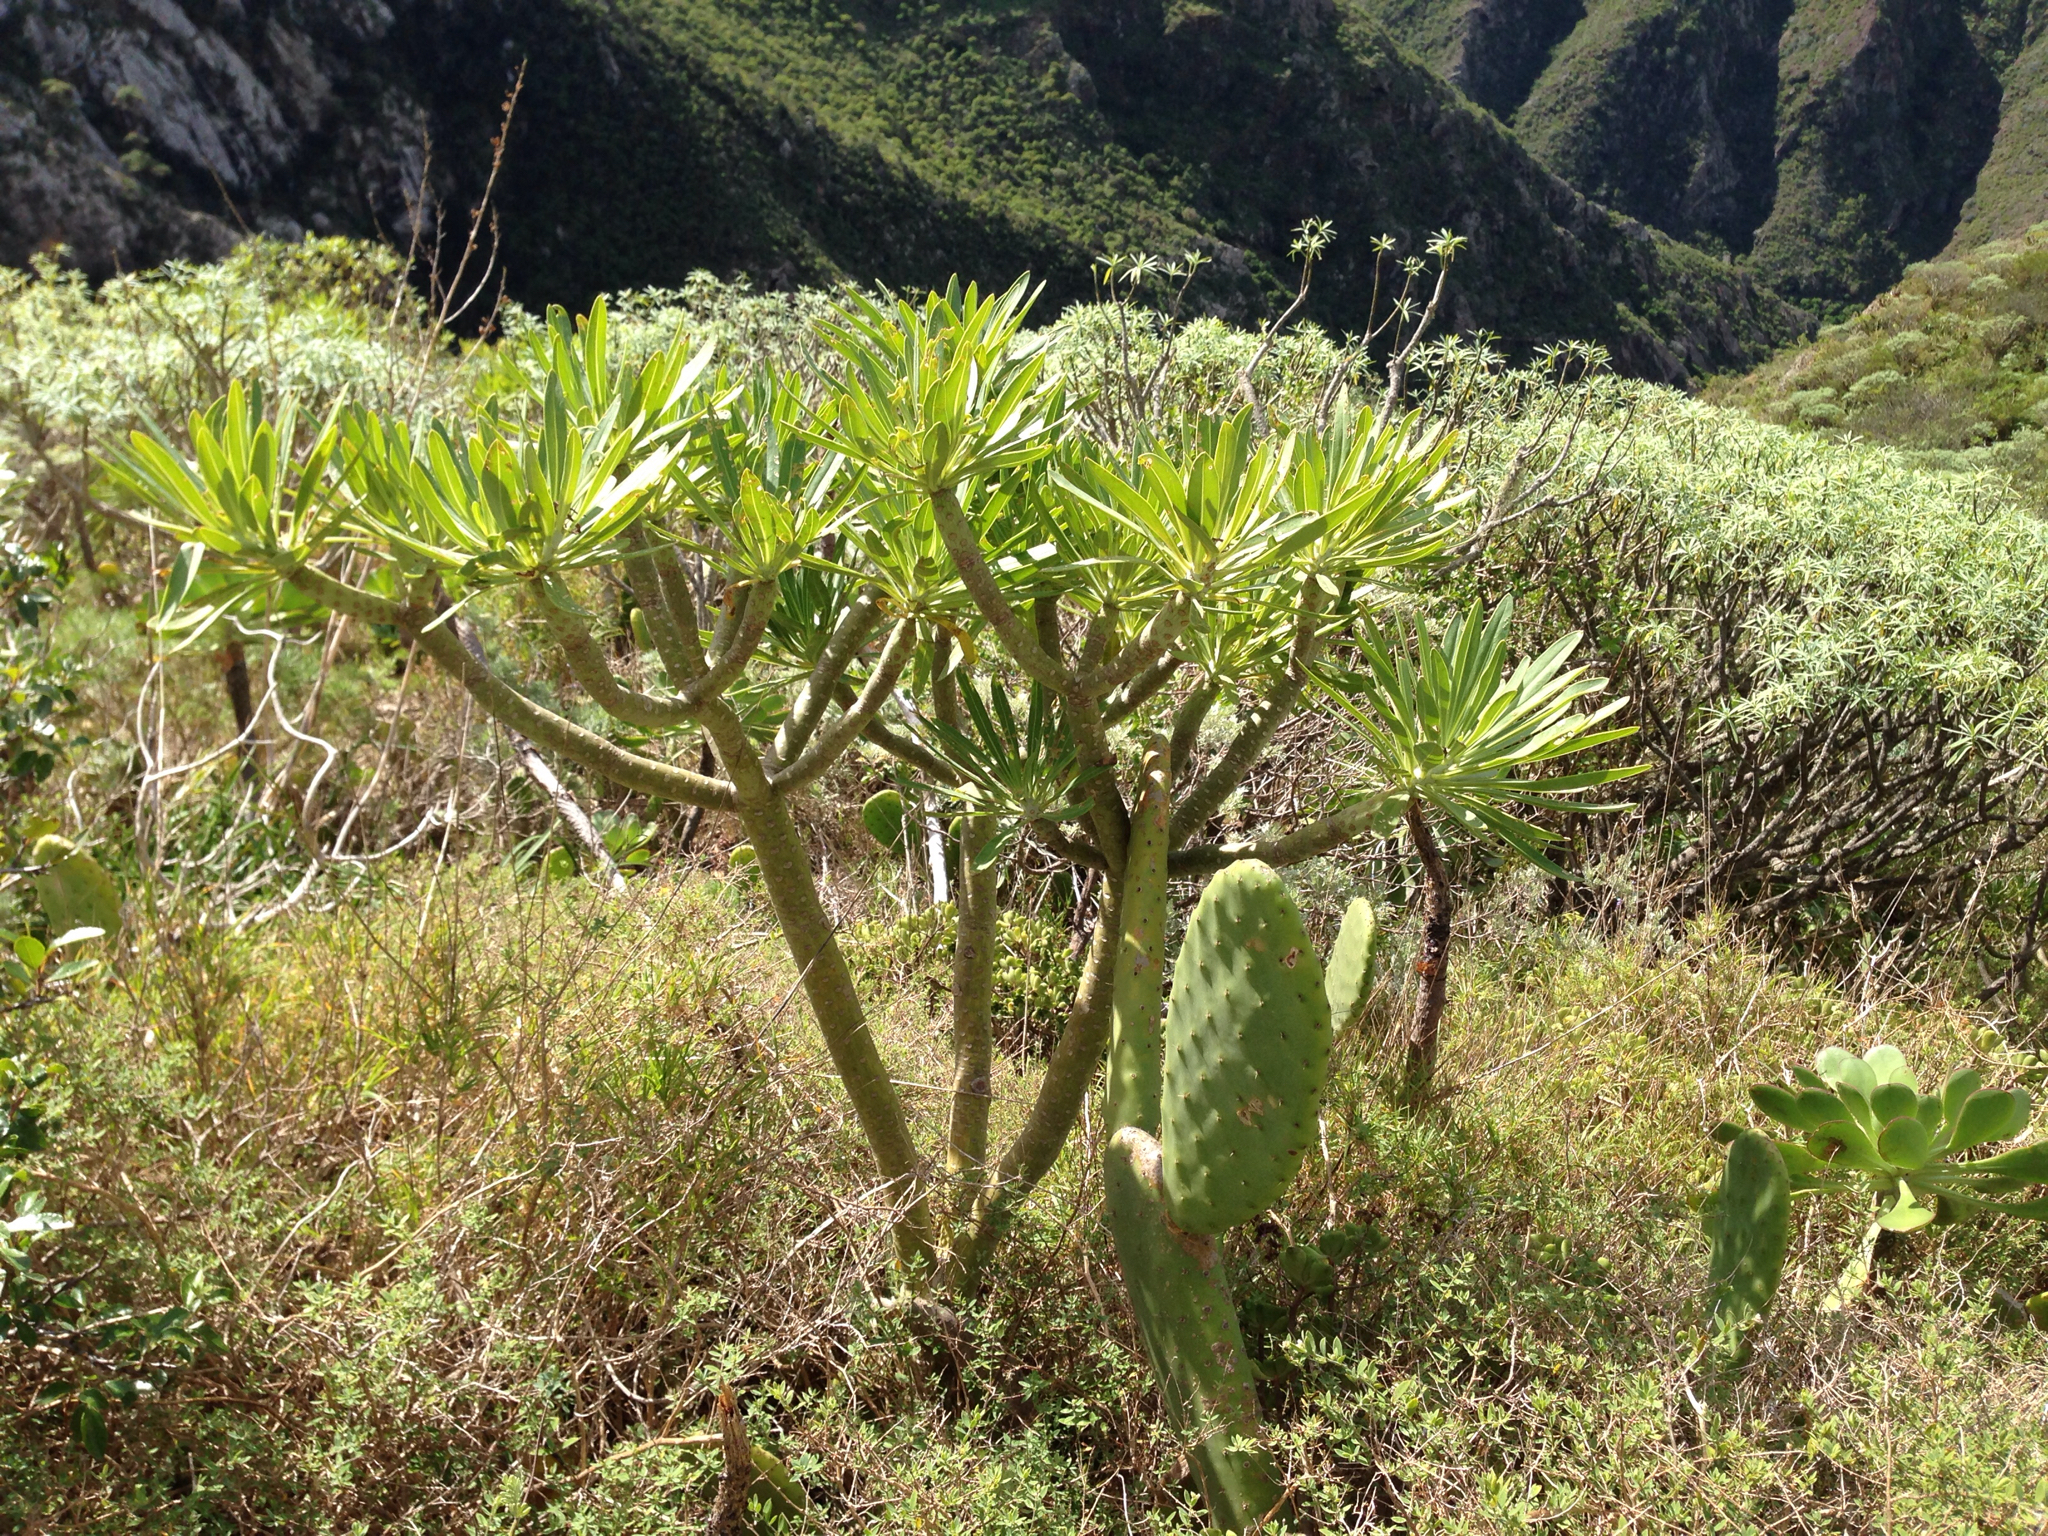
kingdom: Plantae
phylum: Tracheophyta
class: Magnoliopsida
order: Asterales
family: Asteraceae
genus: Kleinia
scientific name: Kleinia neriifolia
